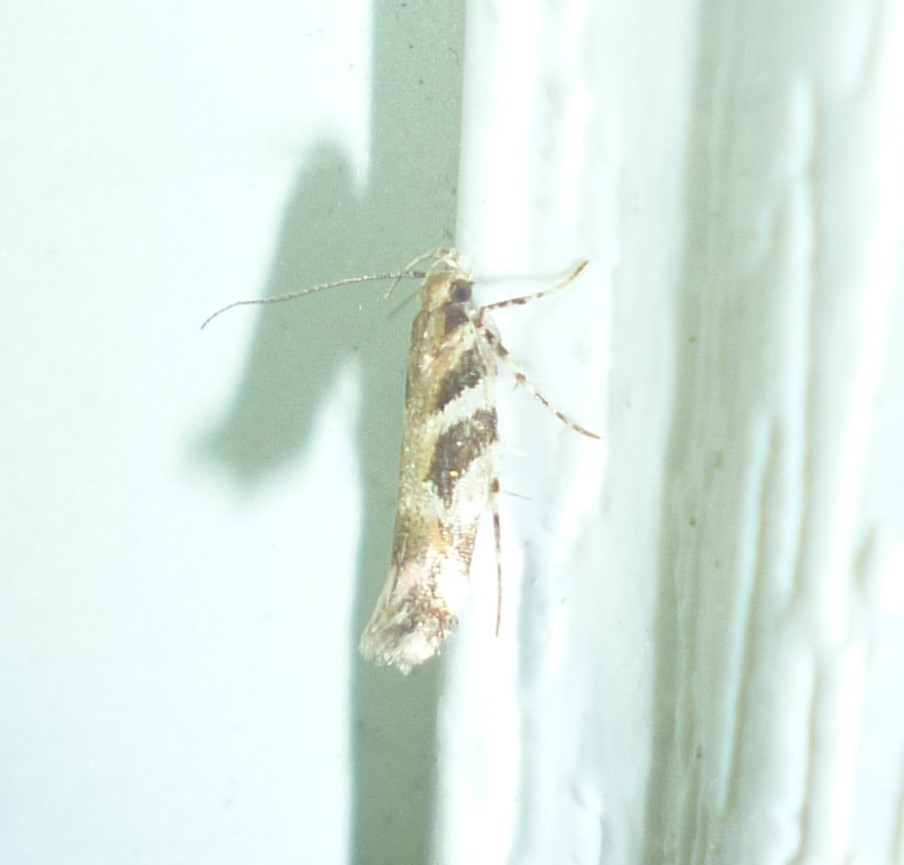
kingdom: Animalia
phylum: Arthropoda
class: Insecta
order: Lepidoptera
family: Gelechiidae
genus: Aristotelia
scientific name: Aristotelia roseosuffusella
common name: Pink-washed aristotelia moth
